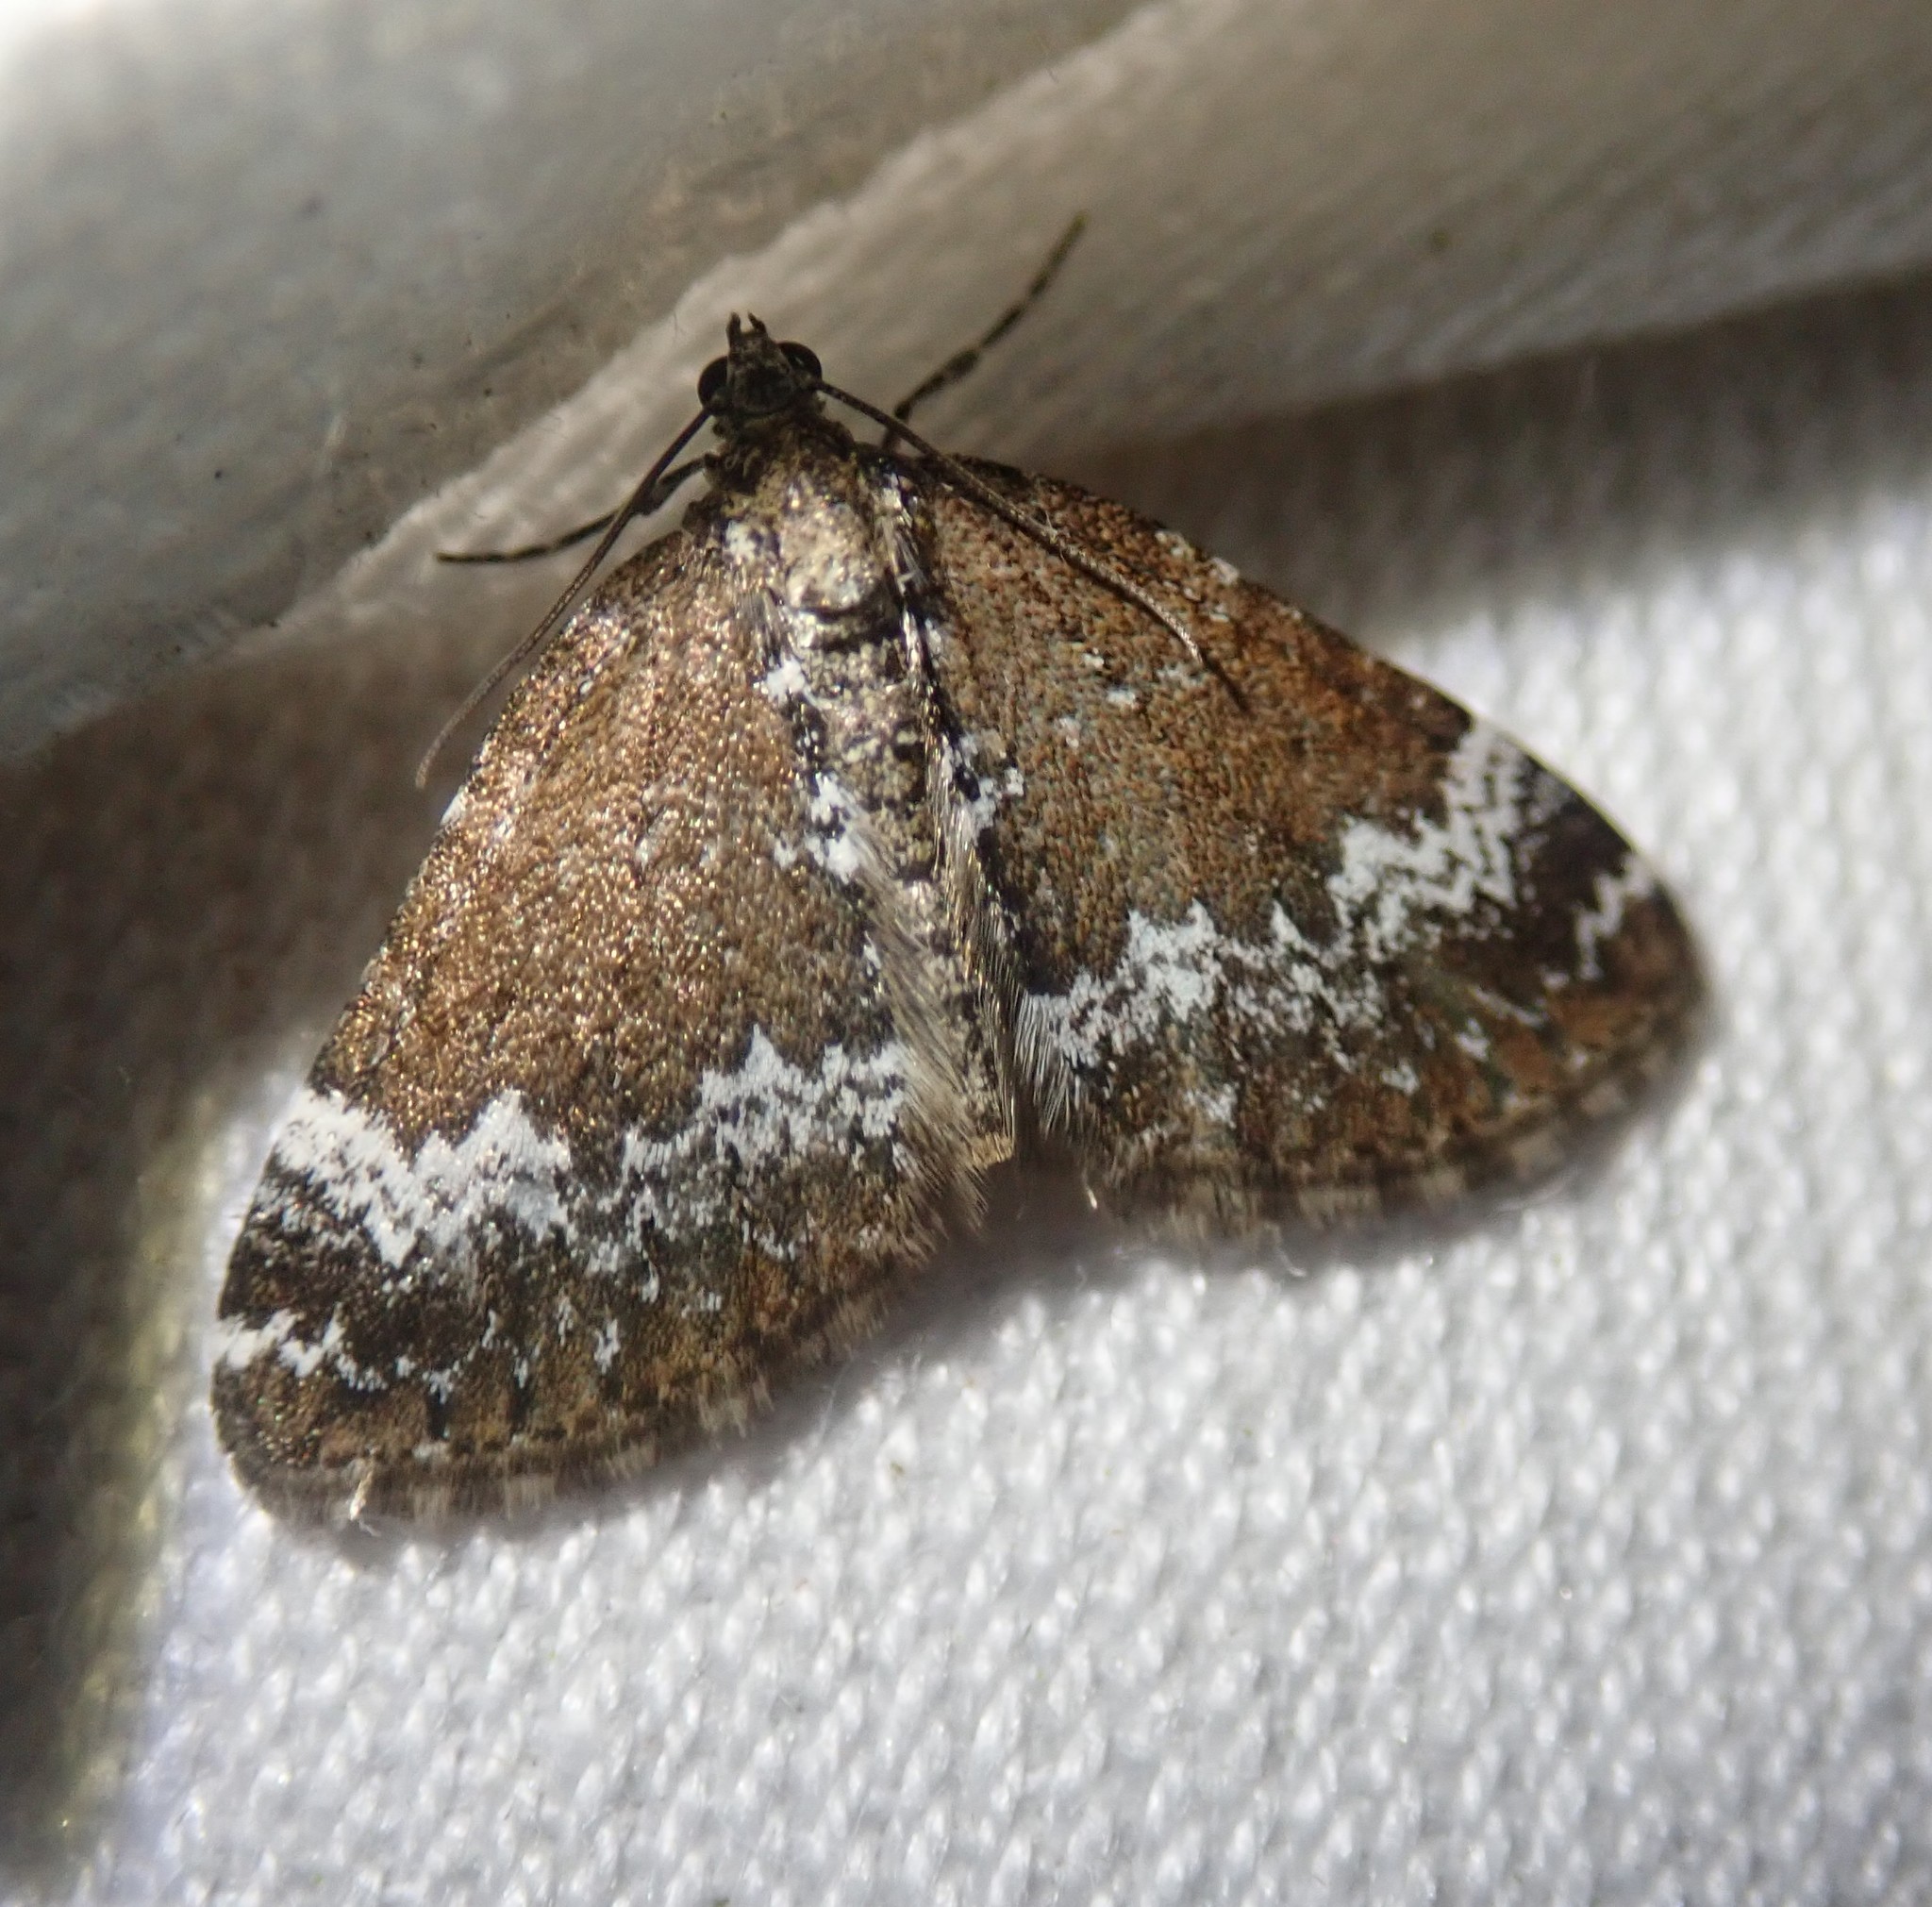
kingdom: Animalia
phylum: Arthropoda
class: Insecta
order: Lepidoptera
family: Geometridae
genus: Perizoma
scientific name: Perizoma alchemillata
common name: Small rivulet
